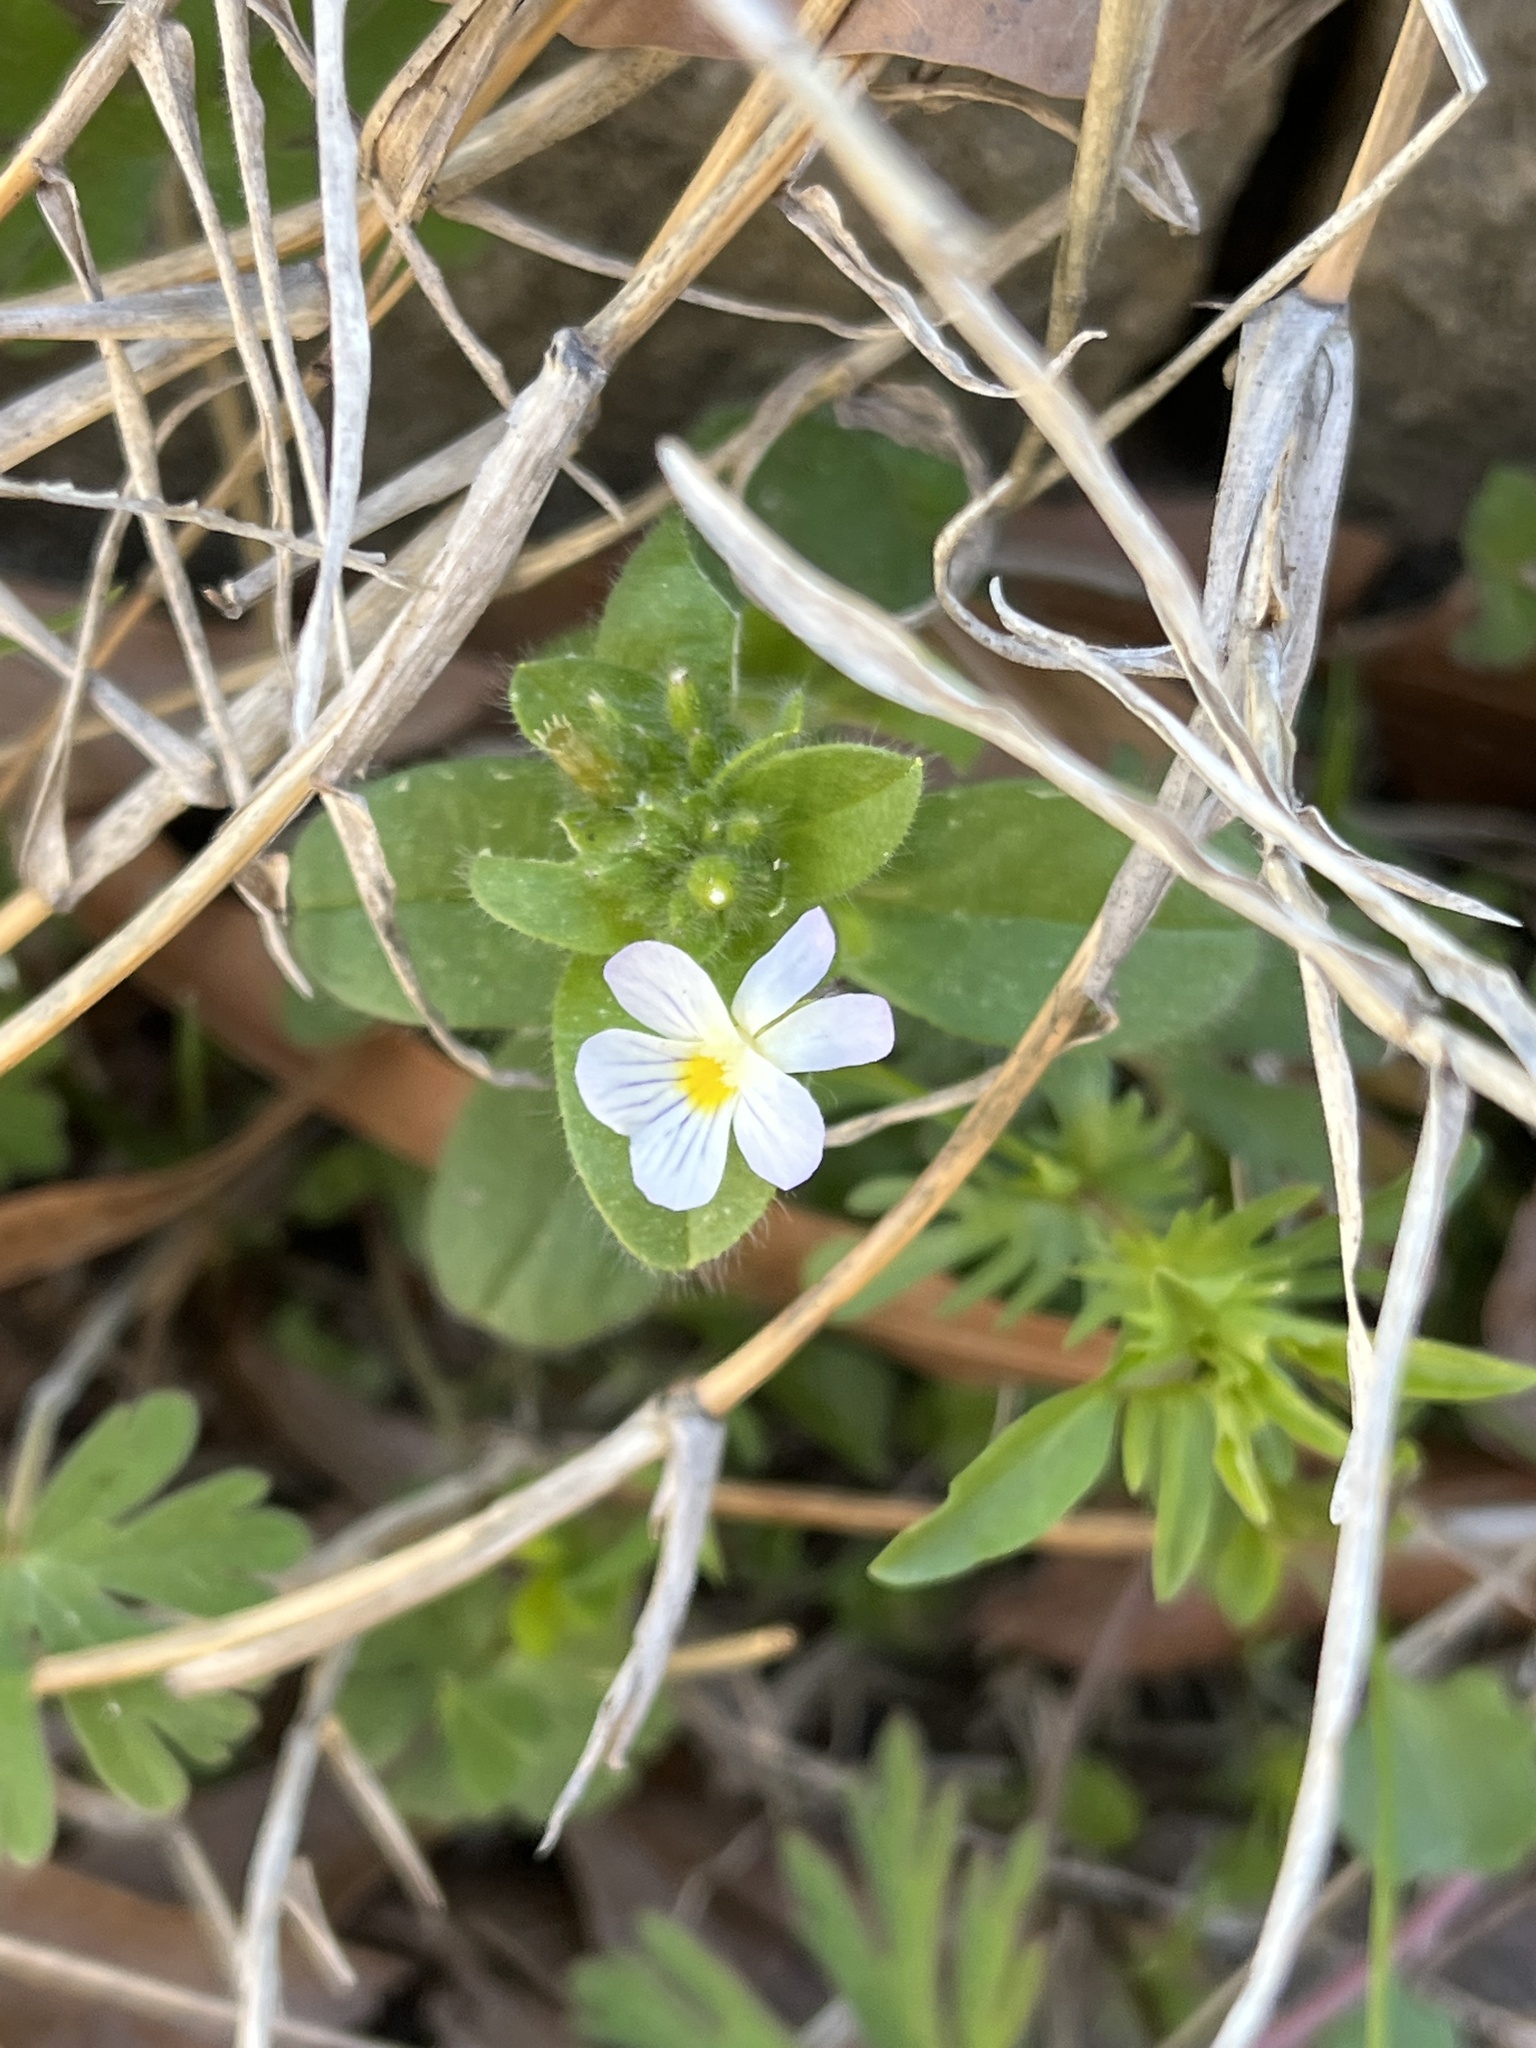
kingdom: Plantae
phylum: Tracheophyta
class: Magnoliopsida
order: Malpighiales
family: Violaceae
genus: Viola
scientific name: Viola rafinesquei
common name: American field pansy
